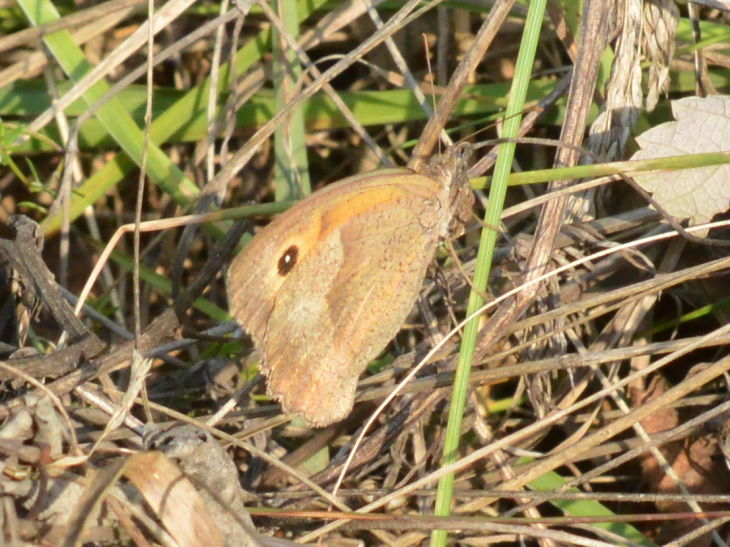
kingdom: Animalia
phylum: Arthropoda
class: Insecta
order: Lepidoptera
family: Nymphalidae
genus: Maniola
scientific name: Maniola jurtina
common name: Meadow brown
